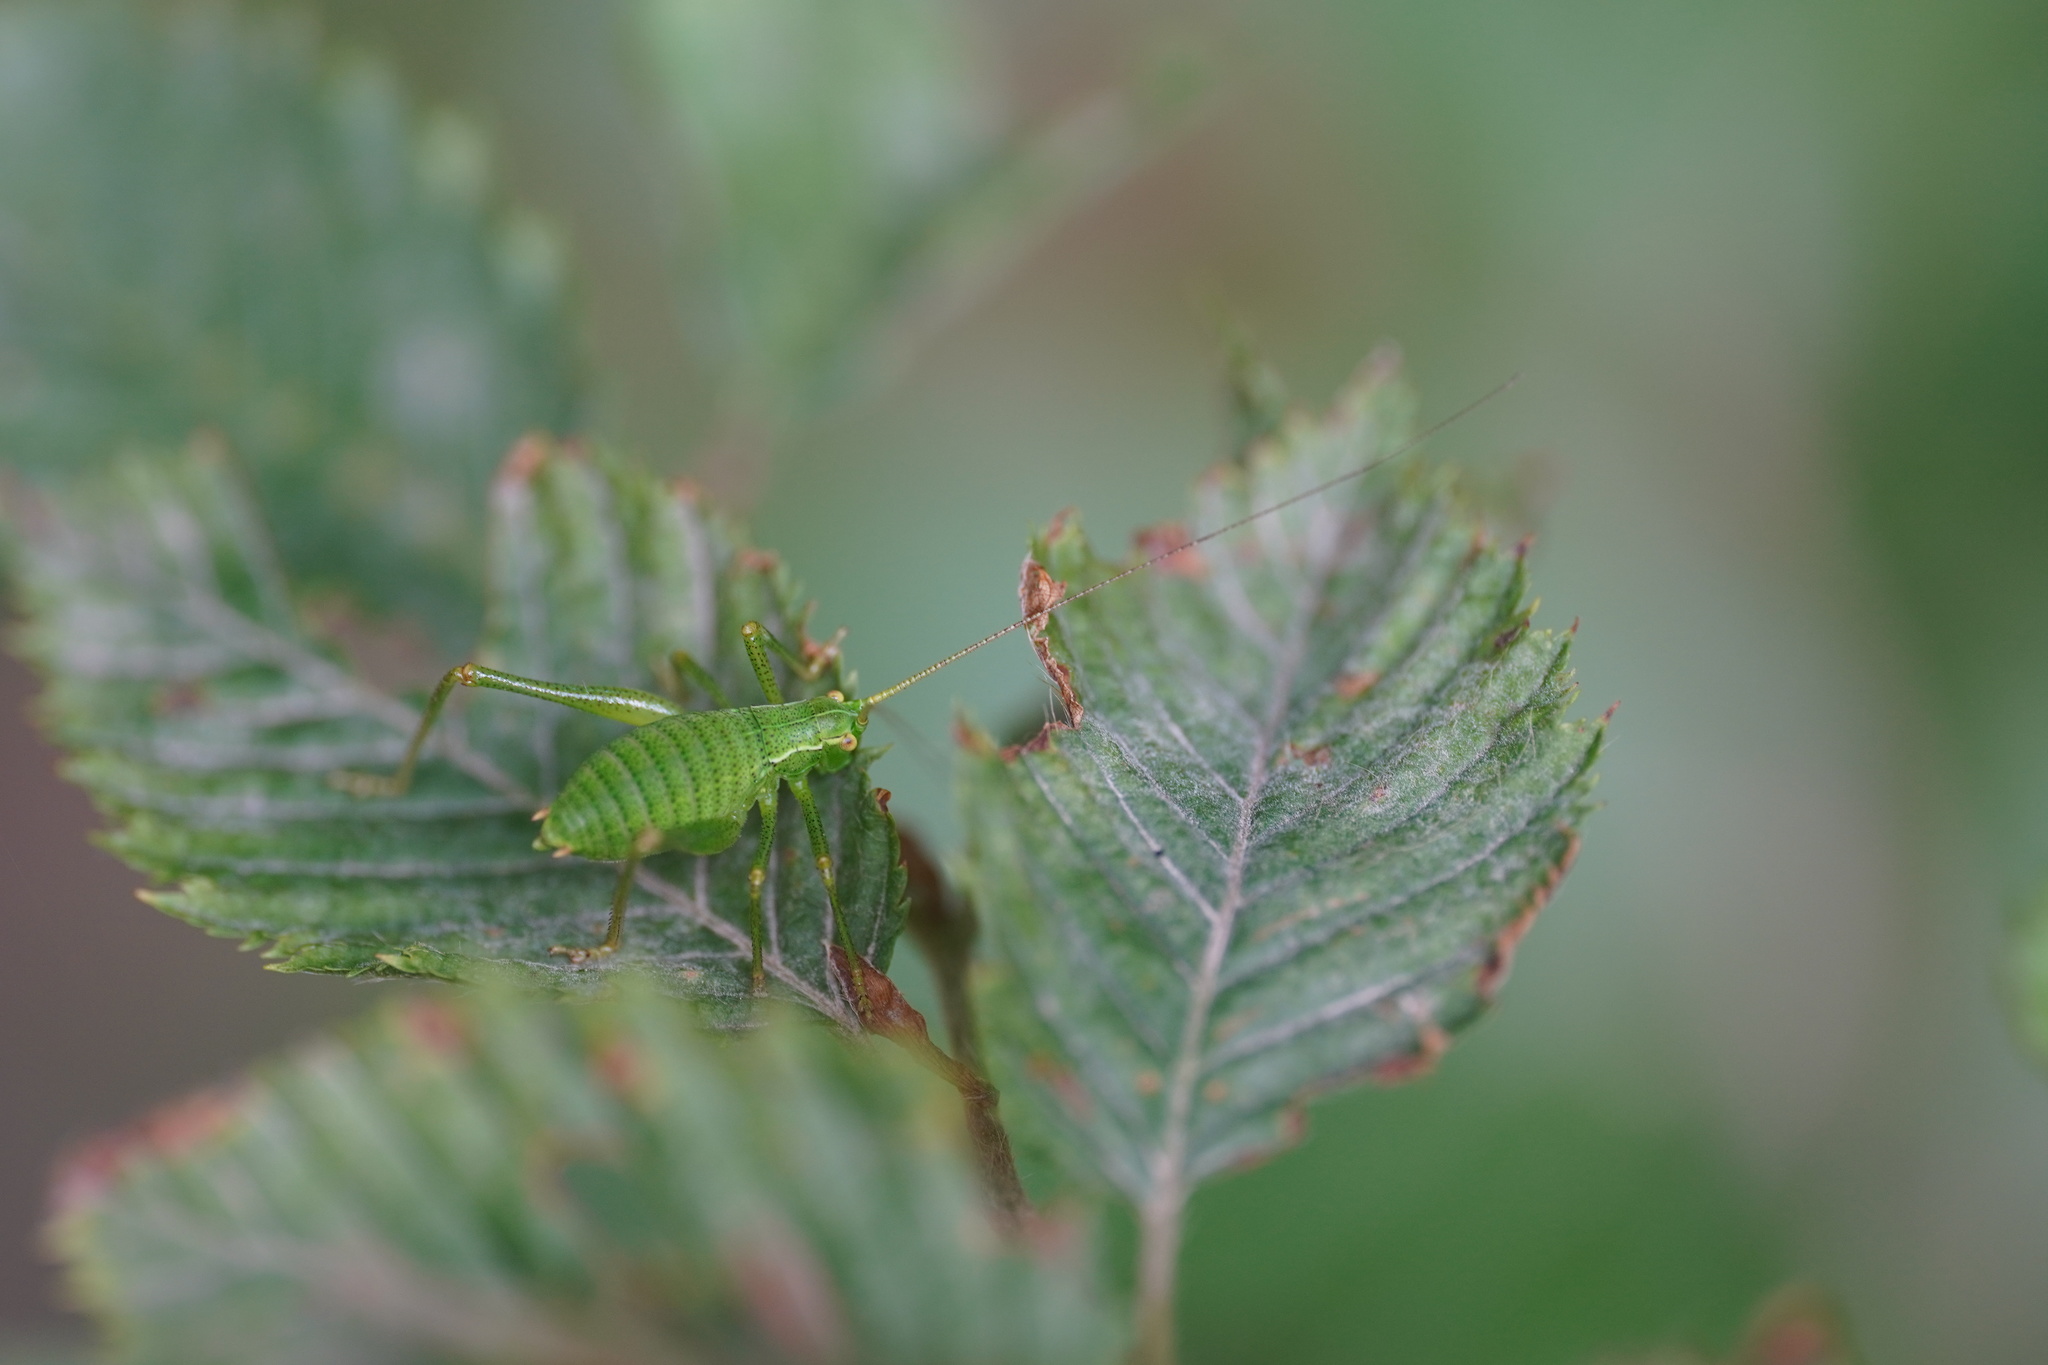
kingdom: Animalia
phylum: Arthropoda
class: Insecta
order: Orthoptera
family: Tettigoniidae
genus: Barbitistes
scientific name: Barbitistes serricauda
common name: Saw-tailed bush-cricket
